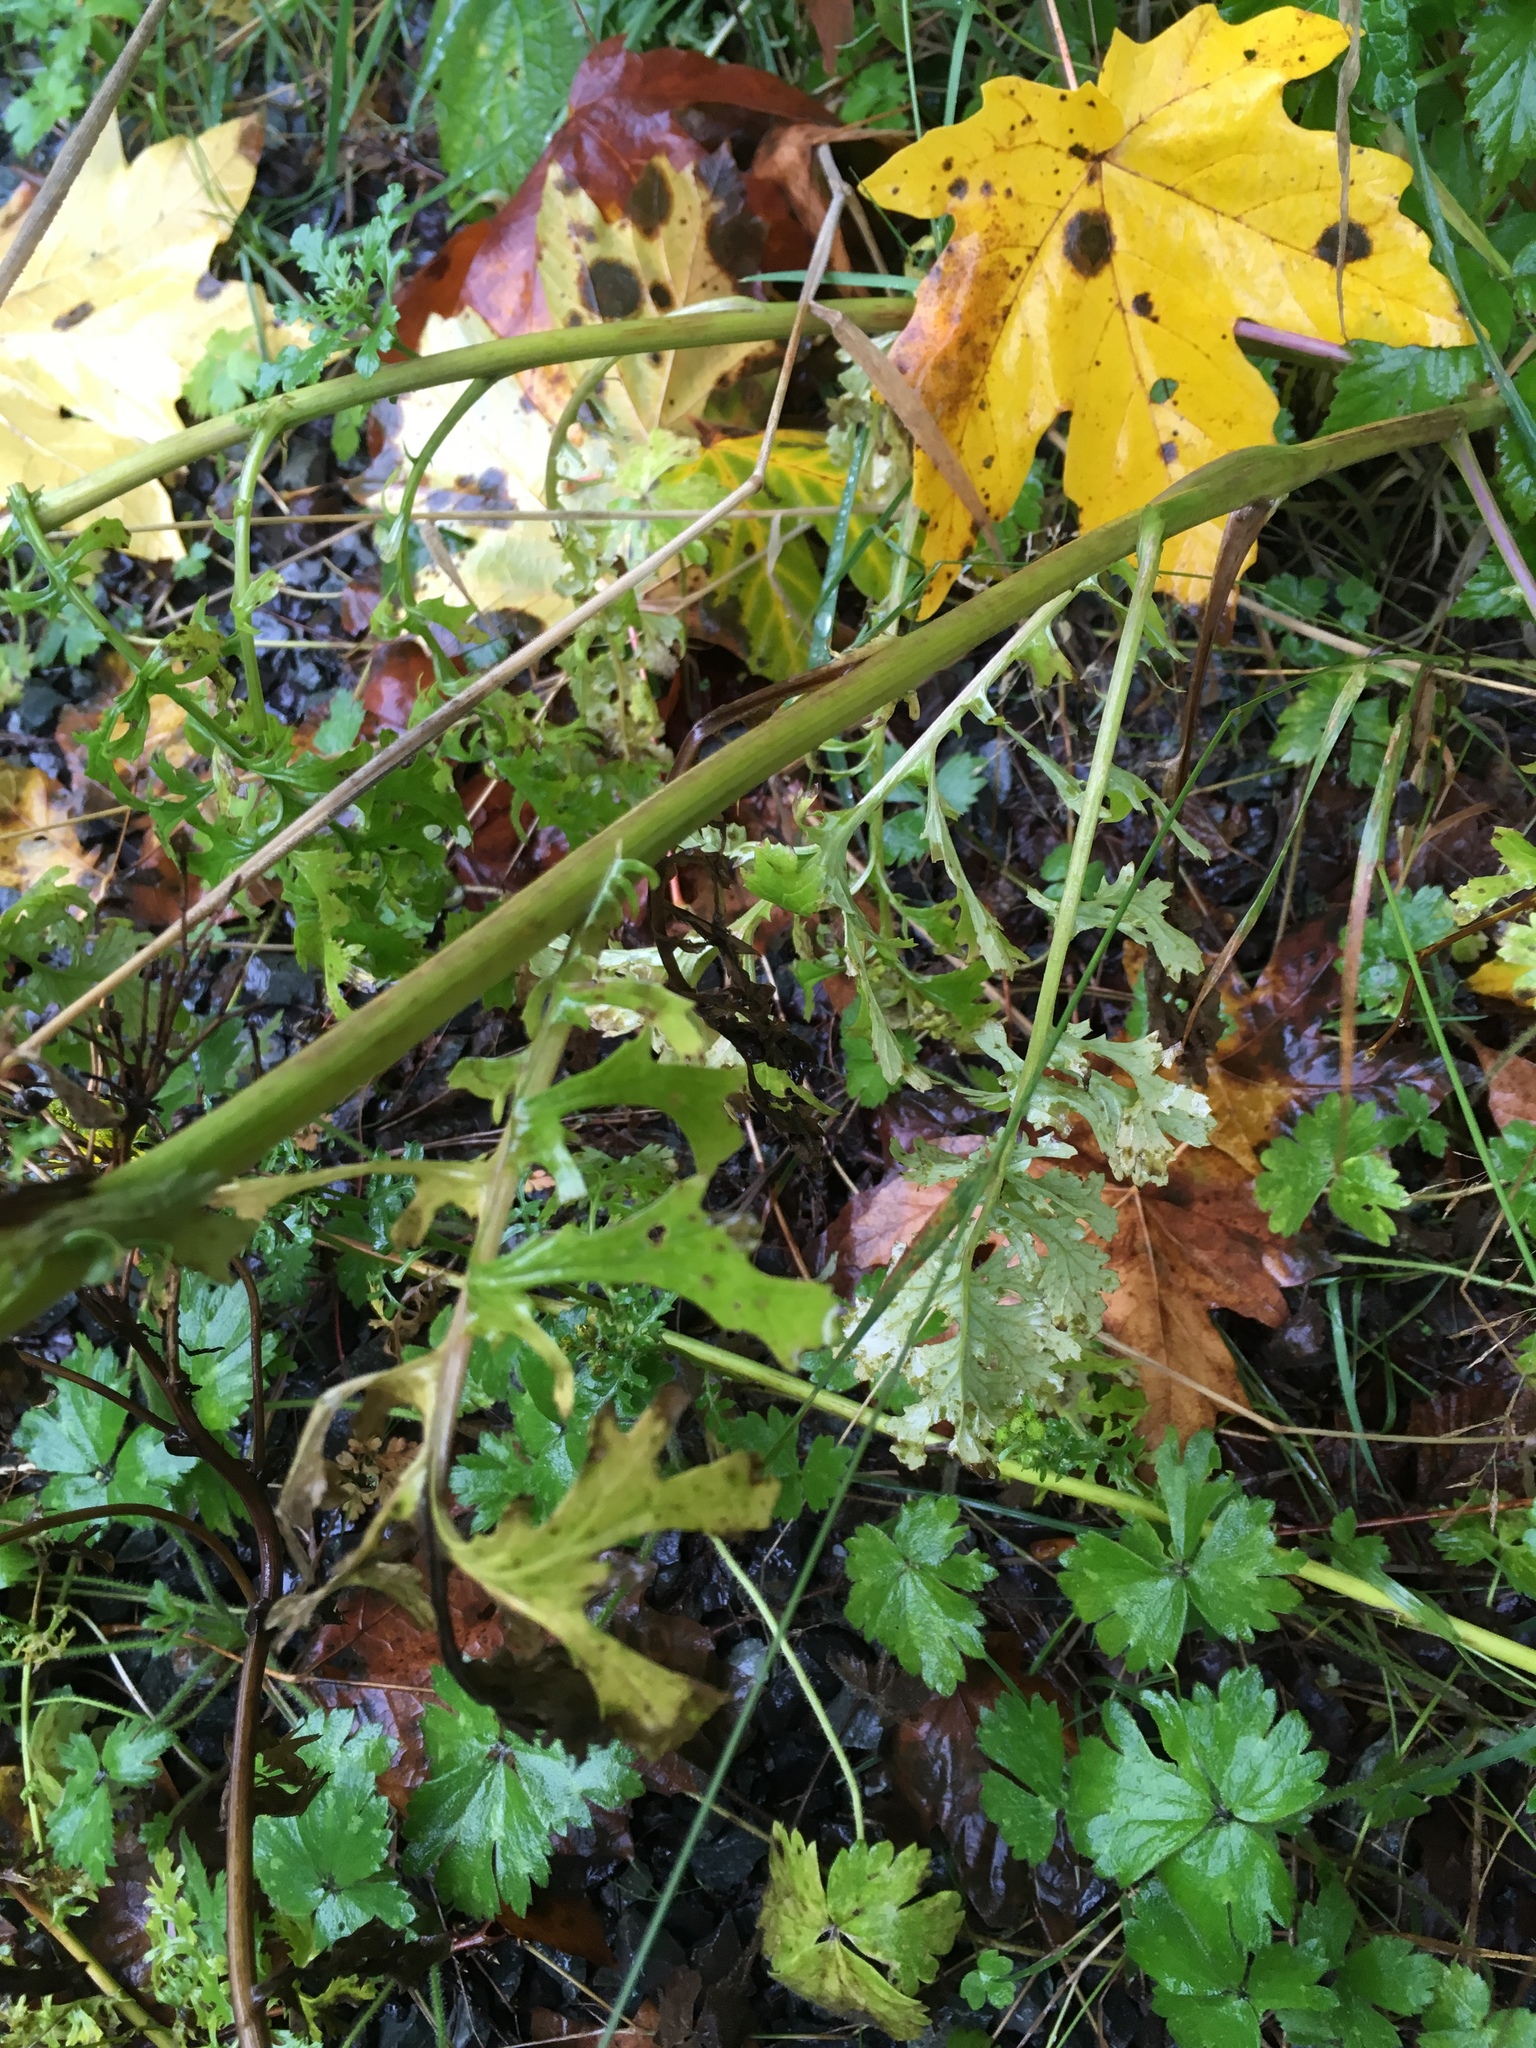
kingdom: Plantae
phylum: Tracheophyta
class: Magnoliopsida
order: Asterales
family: Asteraceae
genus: Jacobaea
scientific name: Jacobaea vulgaris
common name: Stinking willie
